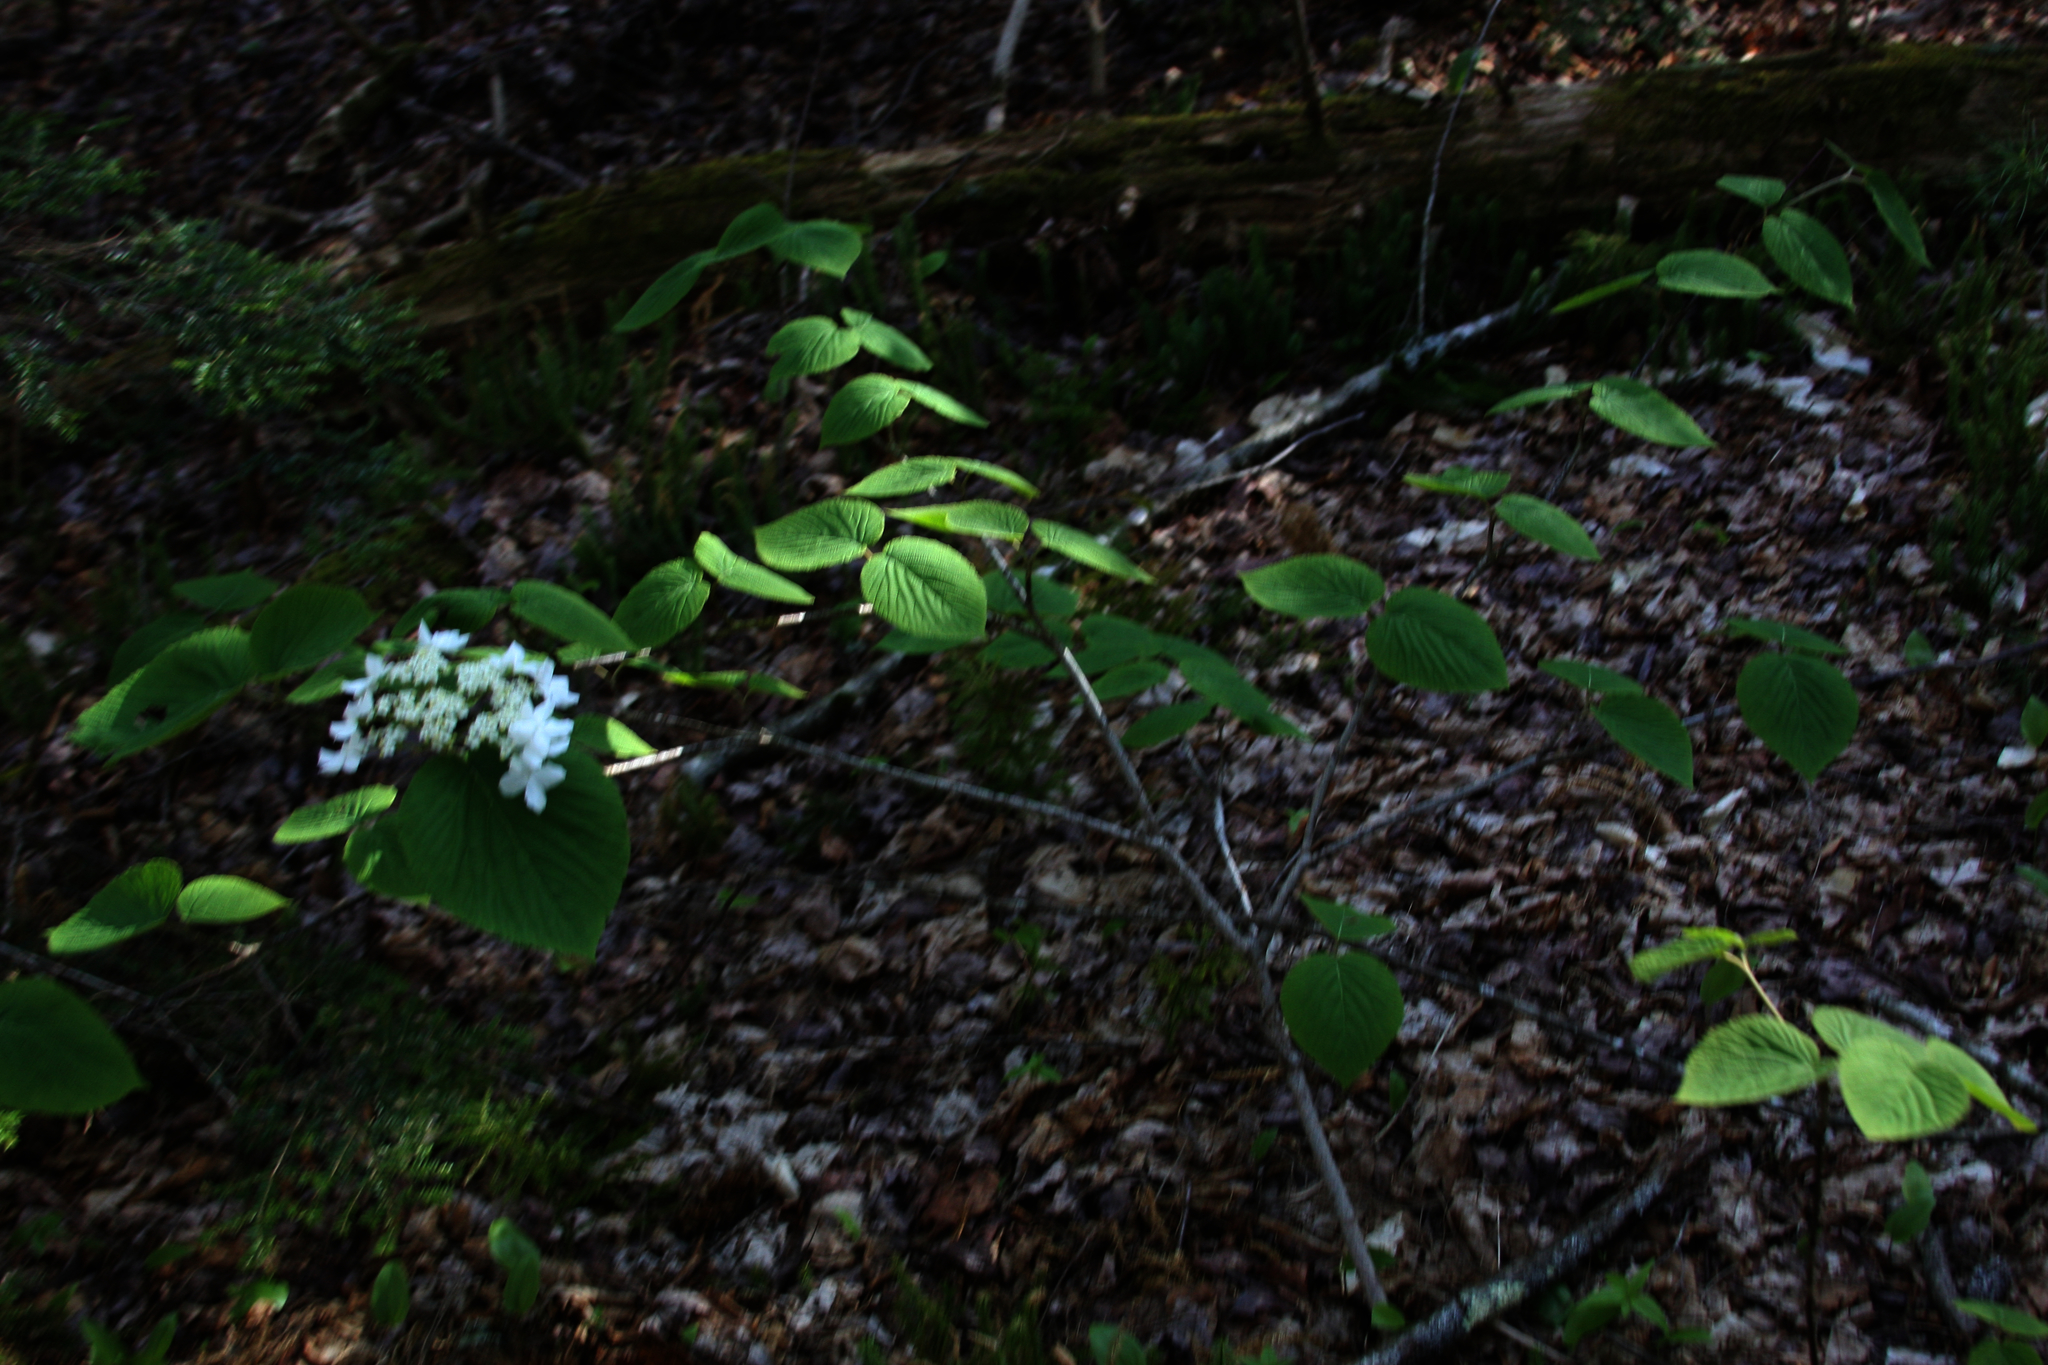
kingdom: Plantae
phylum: Tracheophyta
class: Magnoliopsida
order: Dipsacales
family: Viburnaceae
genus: Viburnum
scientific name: Viburnum lantanoides
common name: Hobblebush
